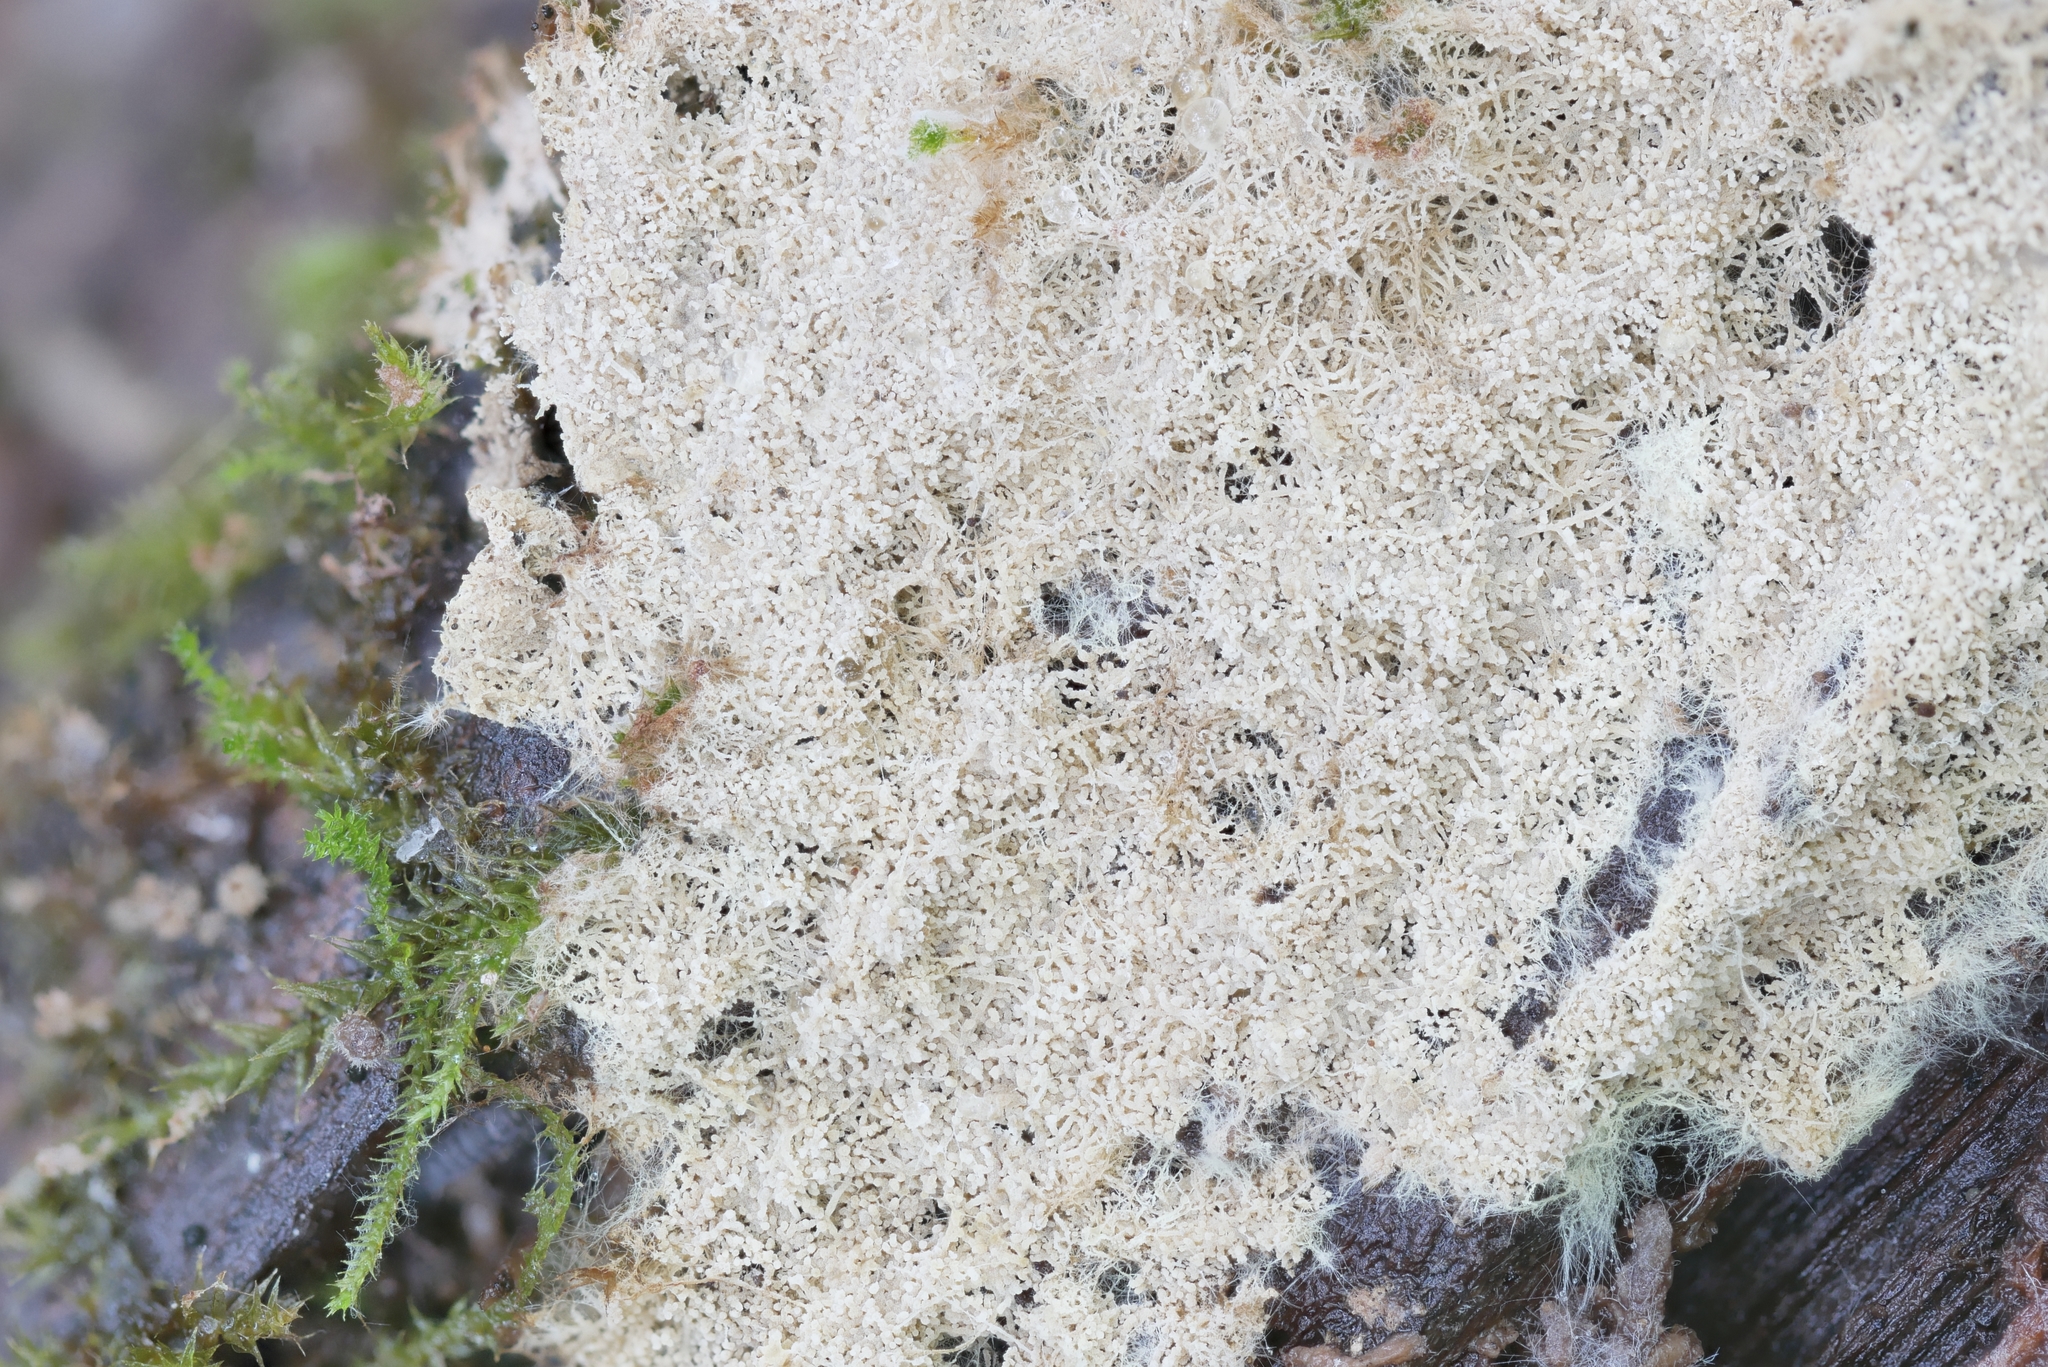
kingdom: Fungi
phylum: Basidiomycota
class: Agaricomycetes
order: Russulales
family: Xenasmataceae
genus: Xenasmatella
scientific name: Xenasmatella vaga
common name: Yellow cobweb
